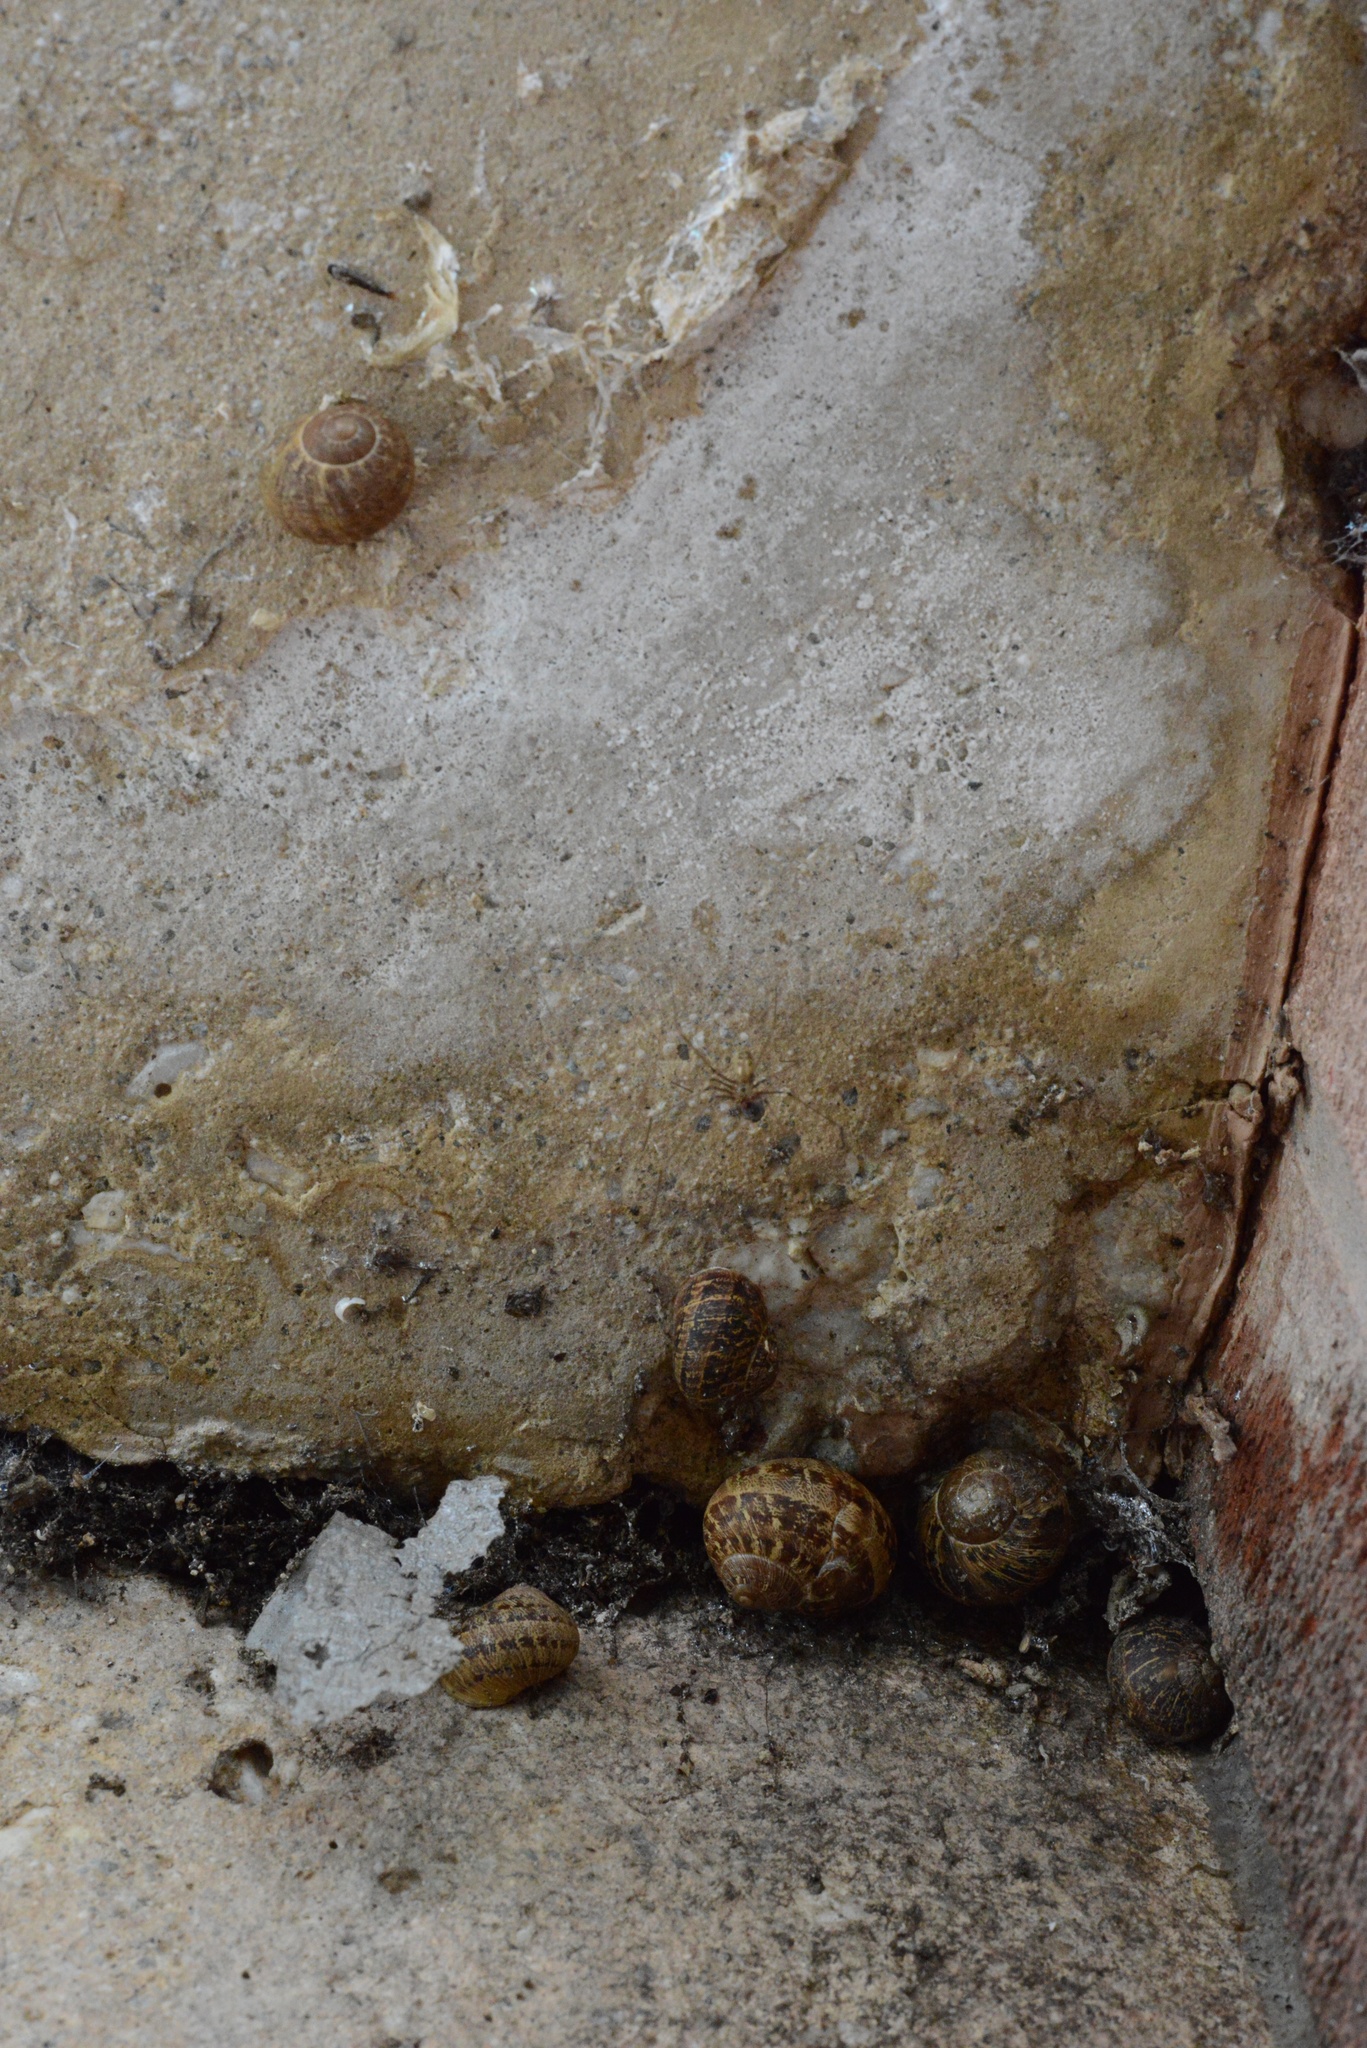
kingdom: Animalia
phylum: Mollusca
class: Gastropoda
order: Stylommatophora
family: Helicidae
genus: Cornu
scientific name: Cornu aspersum
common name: Brown garden snail
